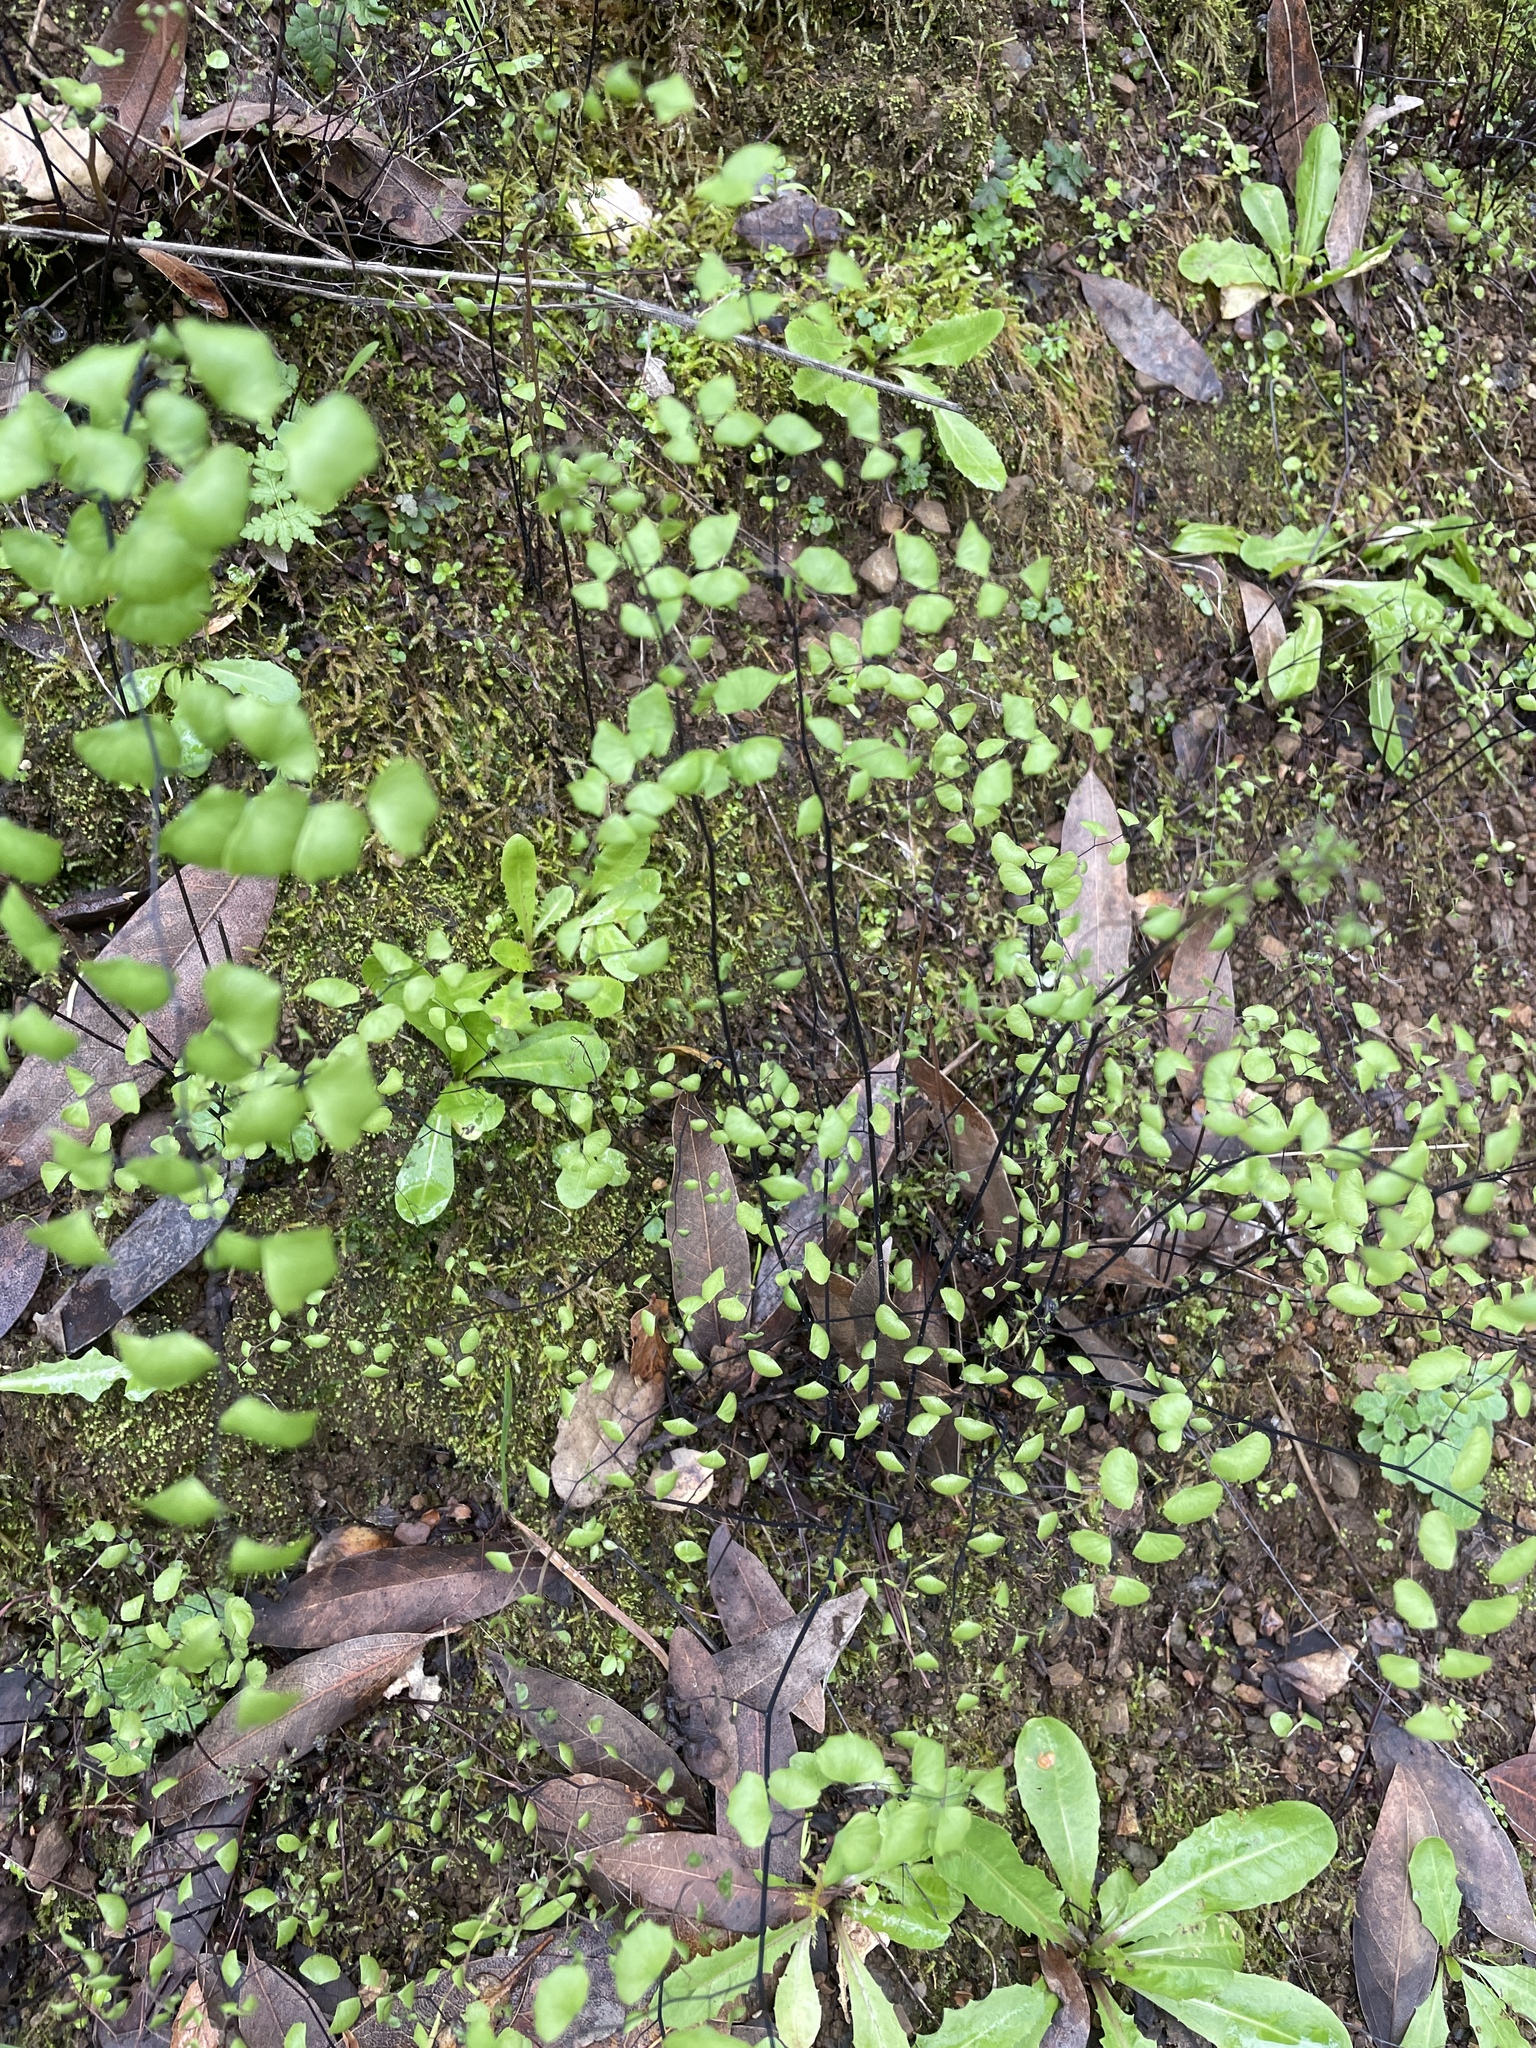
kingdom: Plantae
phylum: Tracheophyta
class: Polypodiopsida
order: Polypodiales
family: Pteridaceae
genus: Adiantum
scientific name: Adiantum jordanii
